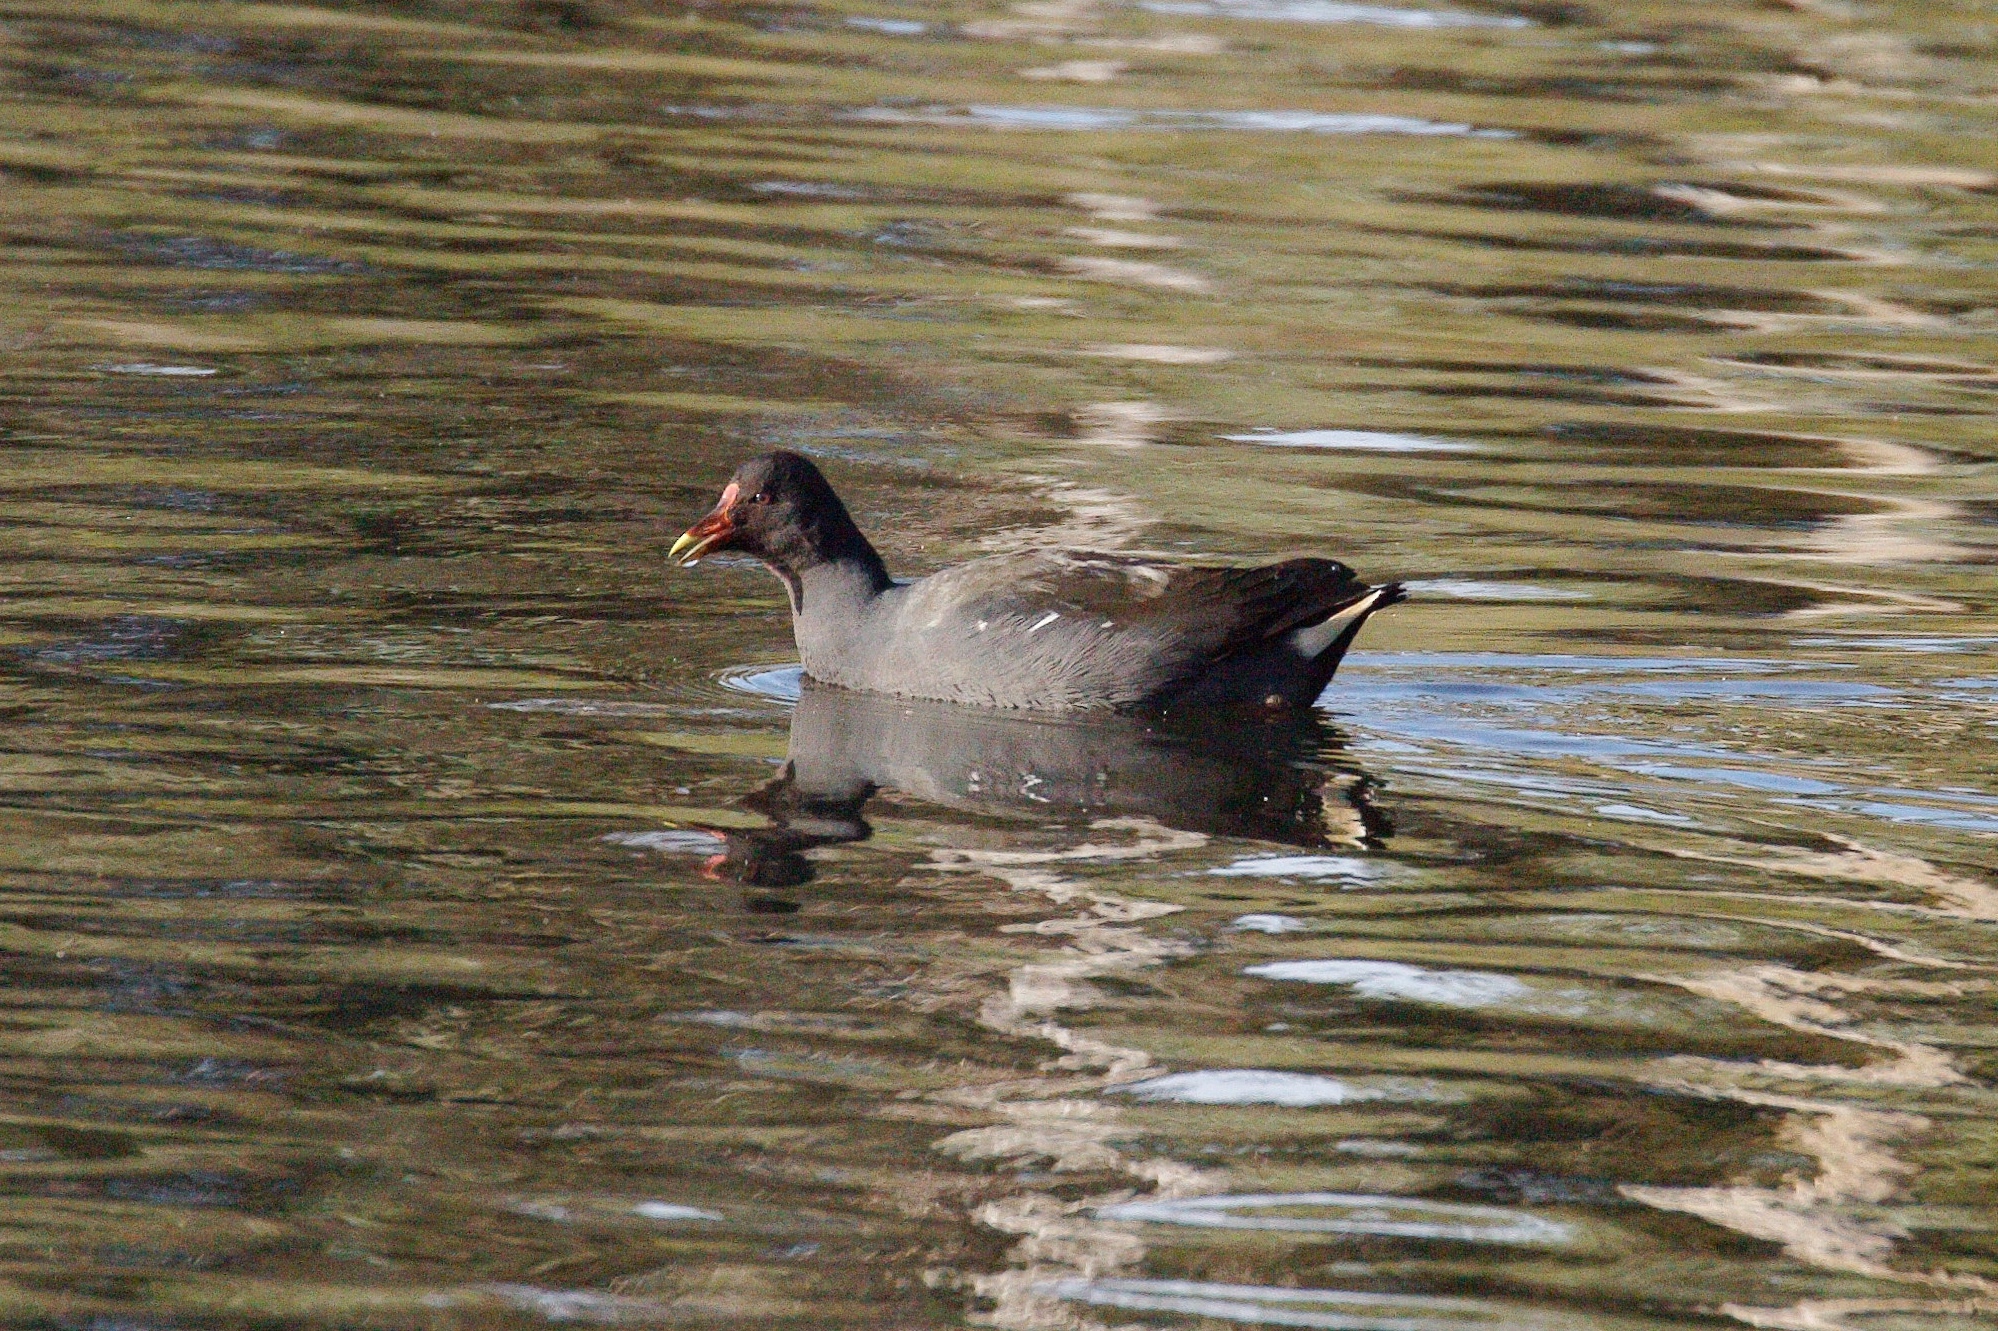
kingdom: Animalia
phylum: Chordata
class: Aves
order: Gruiformes
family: Rallidae
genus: Gallinula
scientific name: Gallinula tenebrosa
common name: Dusky moorhen
